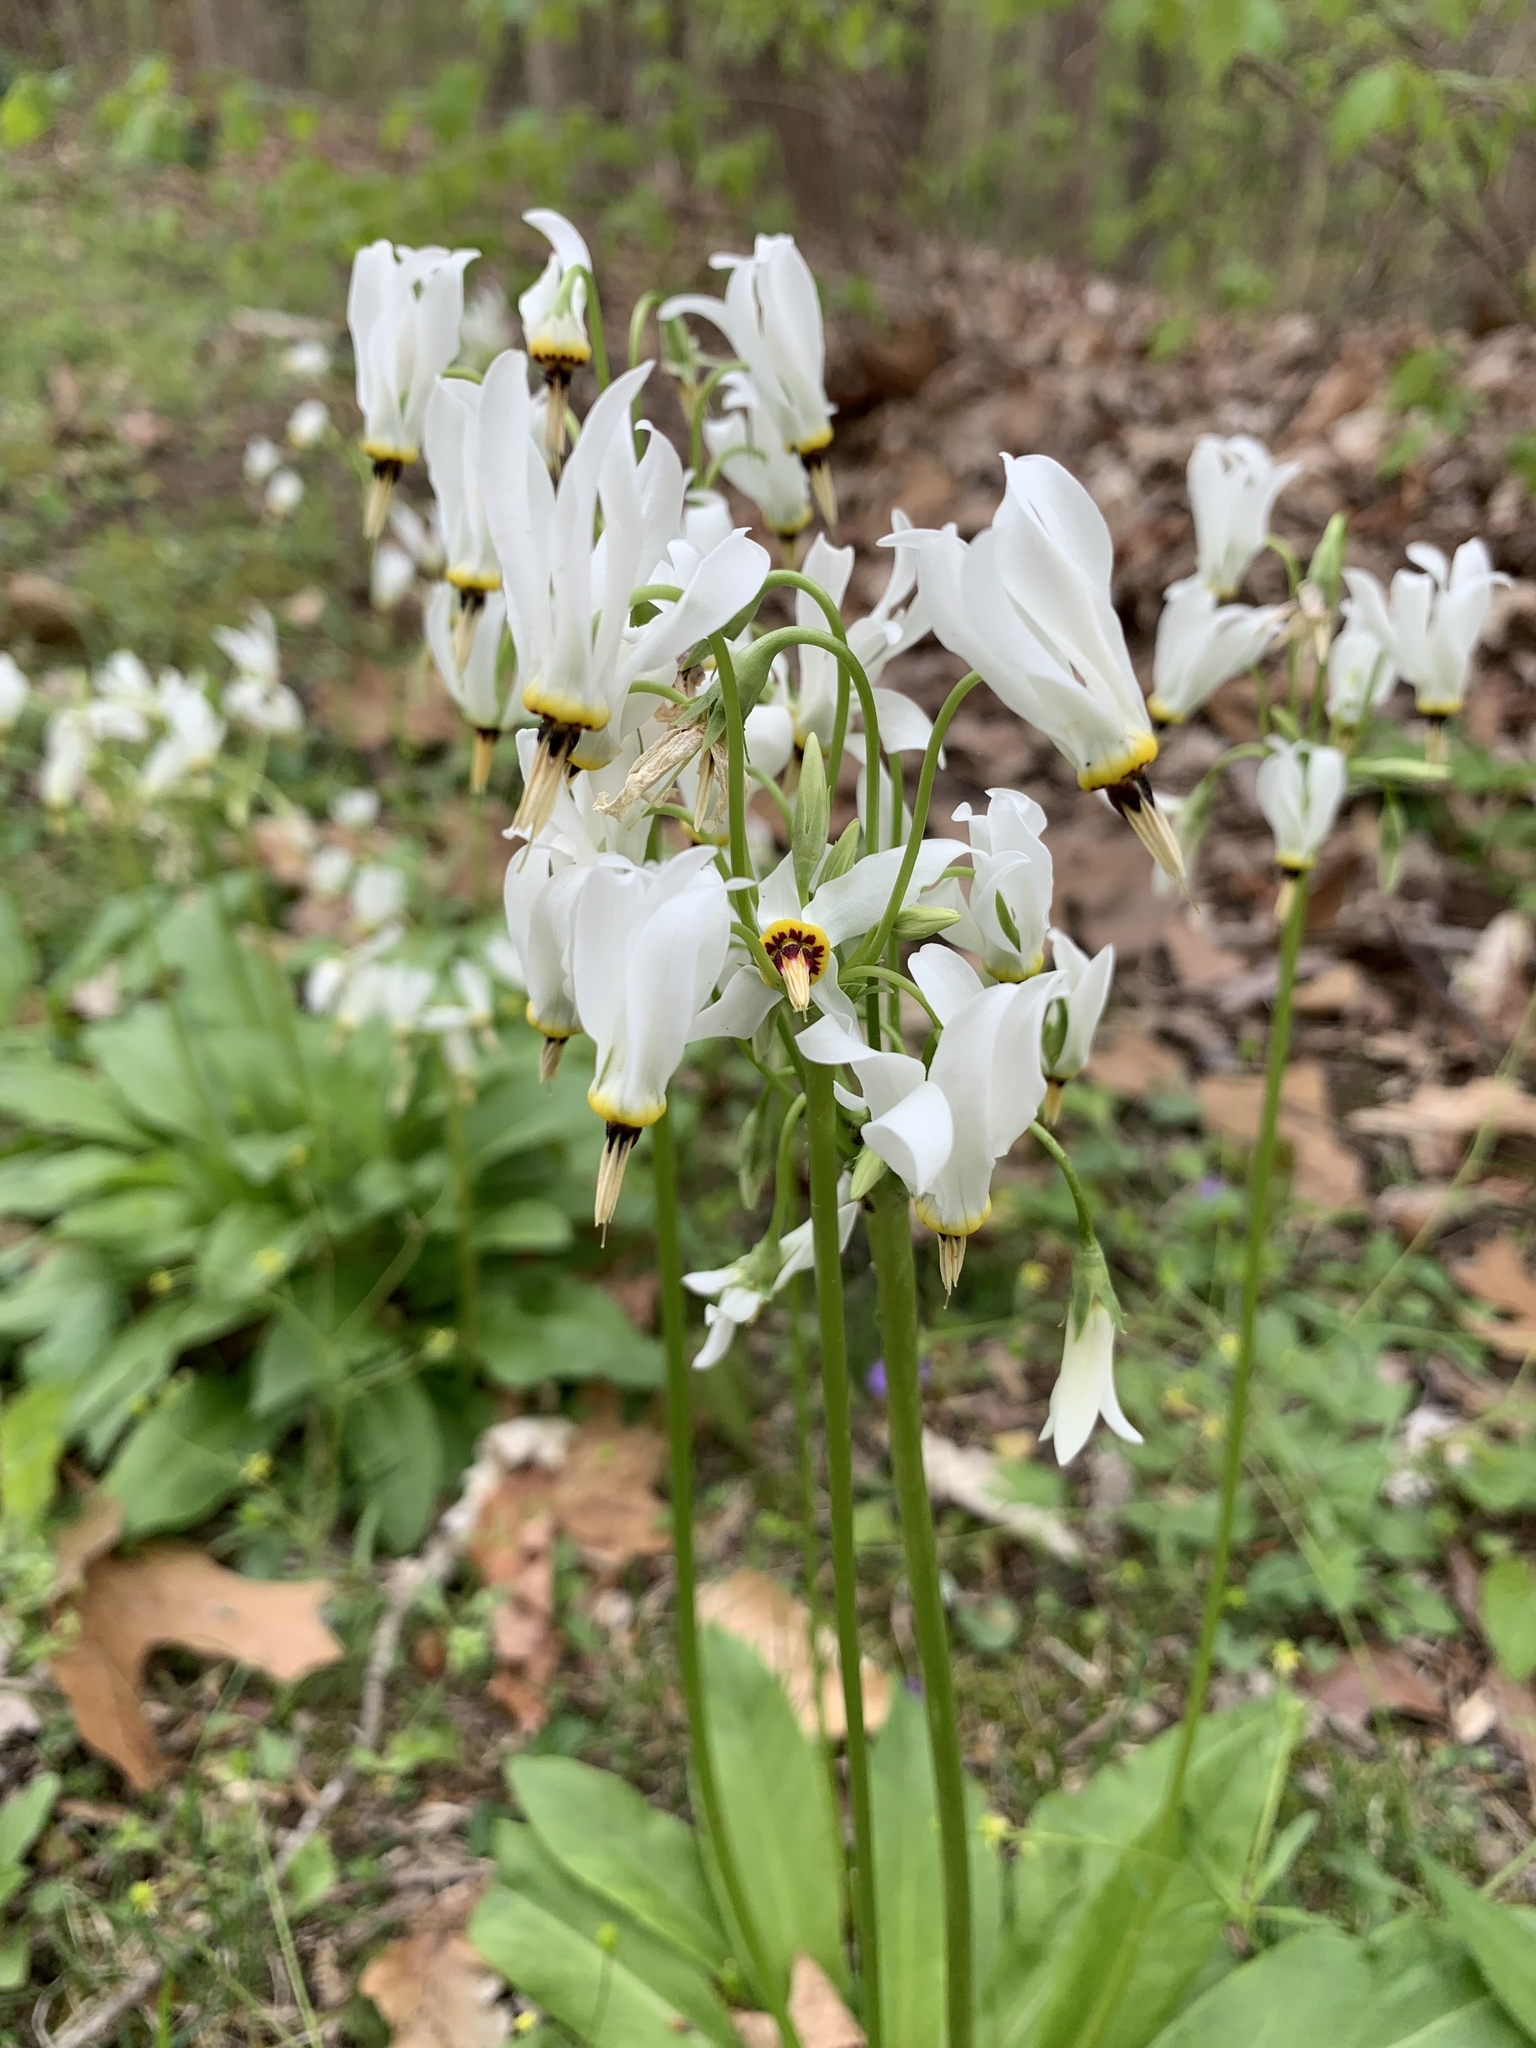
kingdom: Plantae
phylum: Tracheophyta
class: Magnoliopsida
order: Ericales
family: Primulaceae
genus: Dodecatheon
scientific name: Dodecatheon meadia
